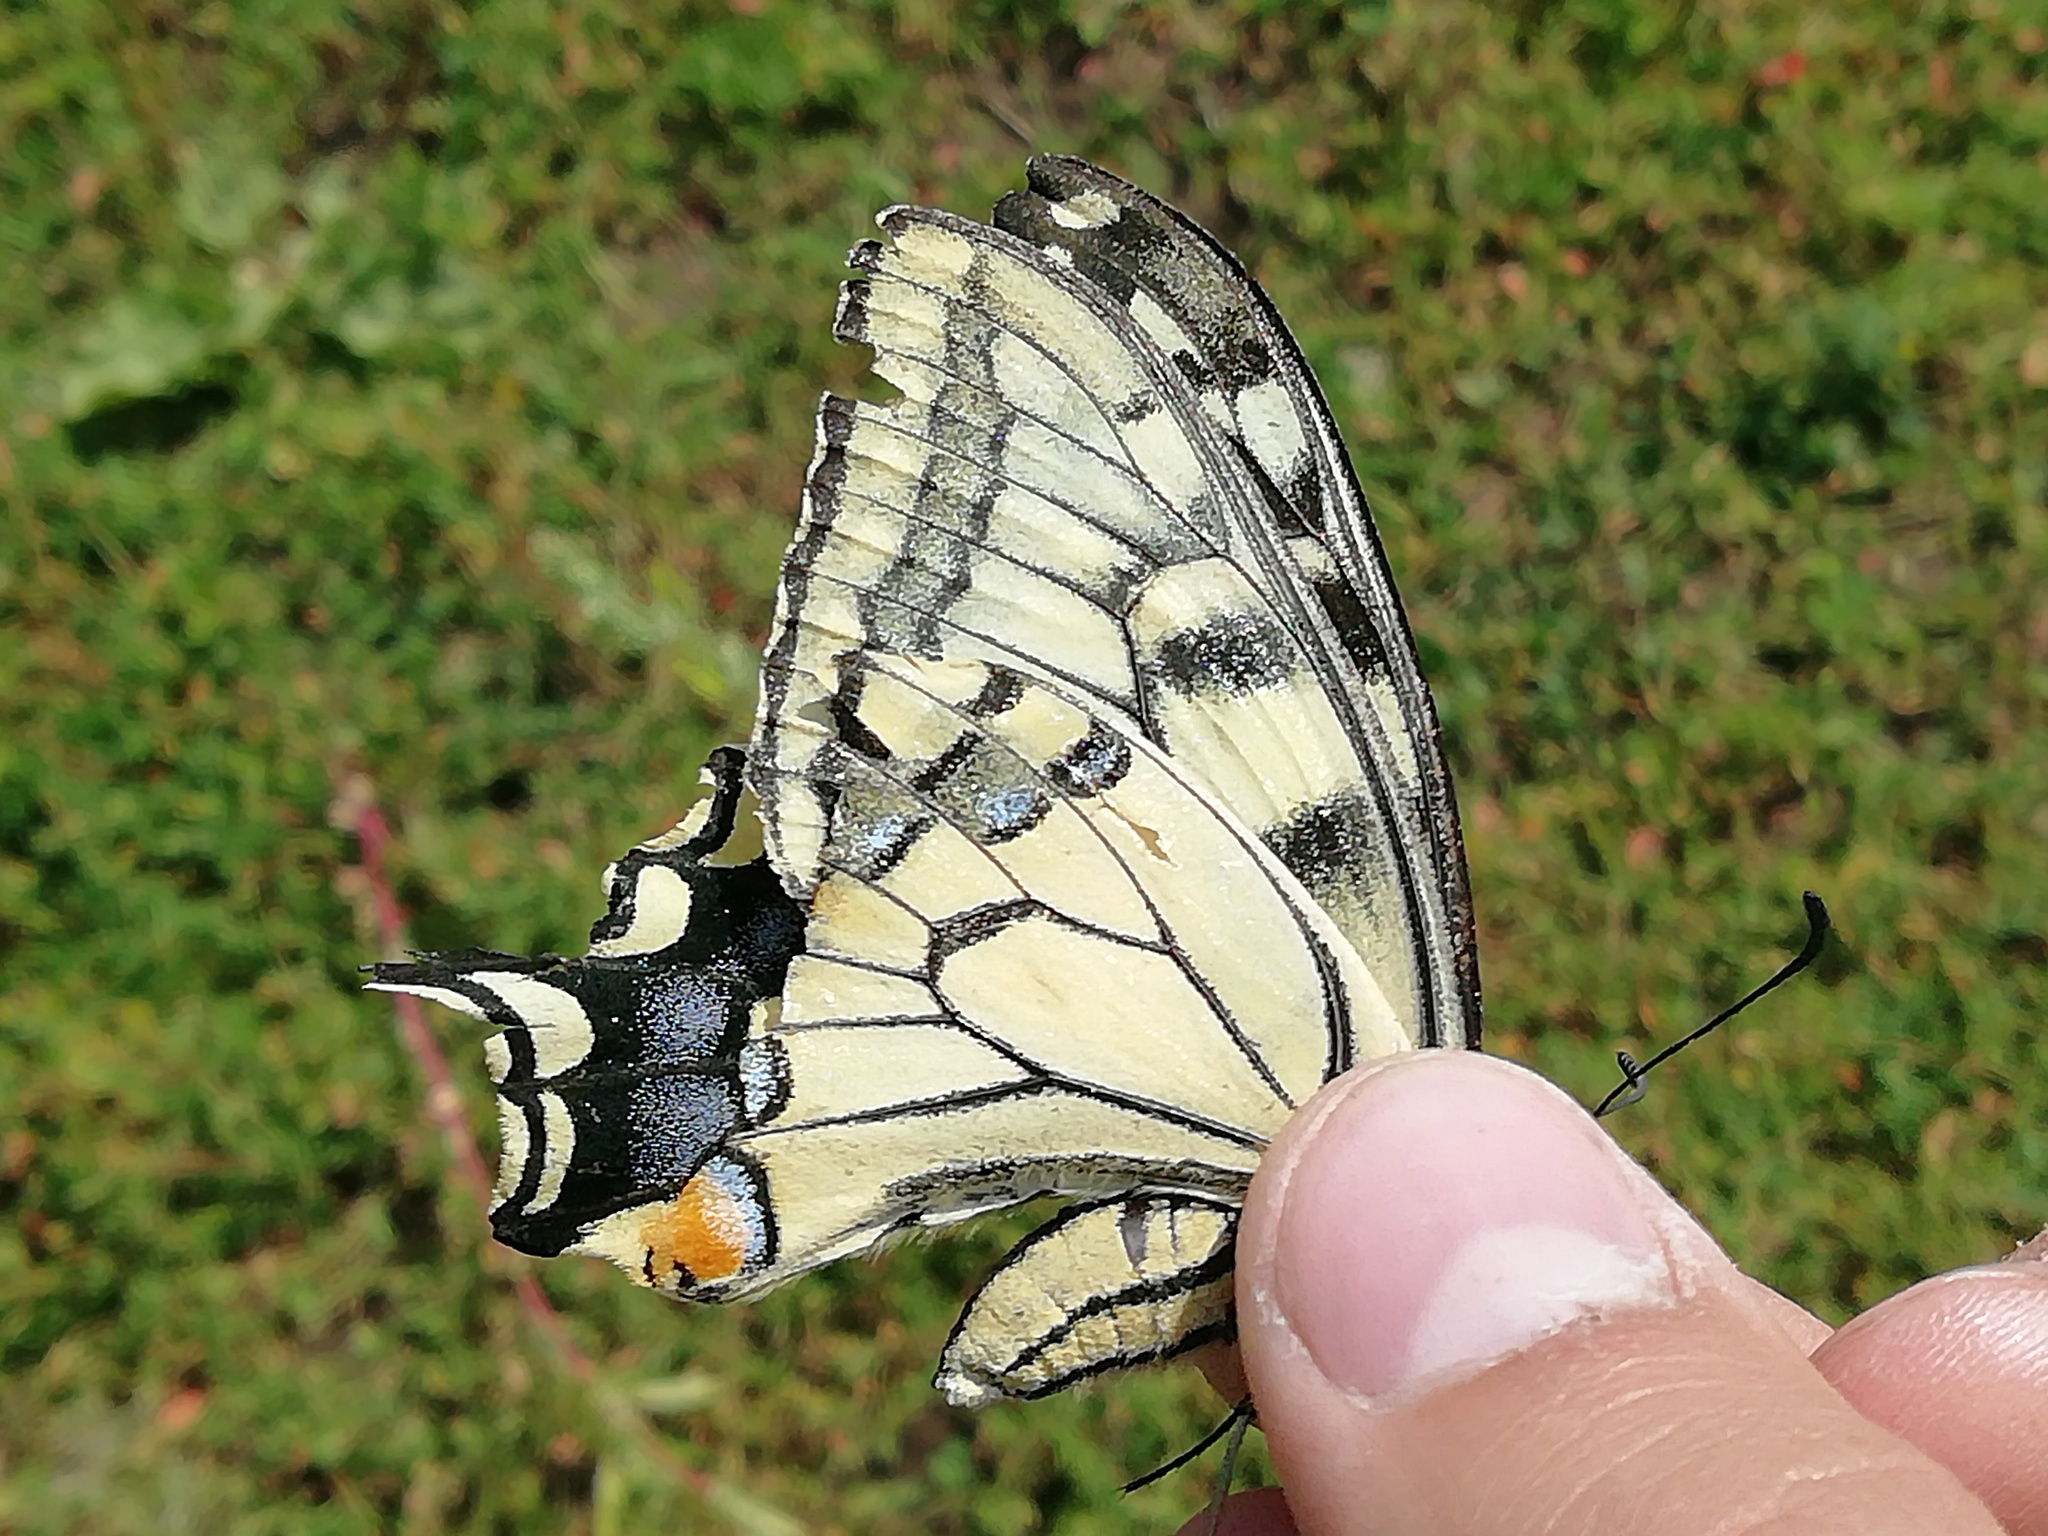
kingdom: Animalia
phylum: Arthropoda
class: Insecta
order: Lepidoptera
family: Papilionidae
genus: Papilio
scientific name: Papilio machaon
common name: Swallowtail
